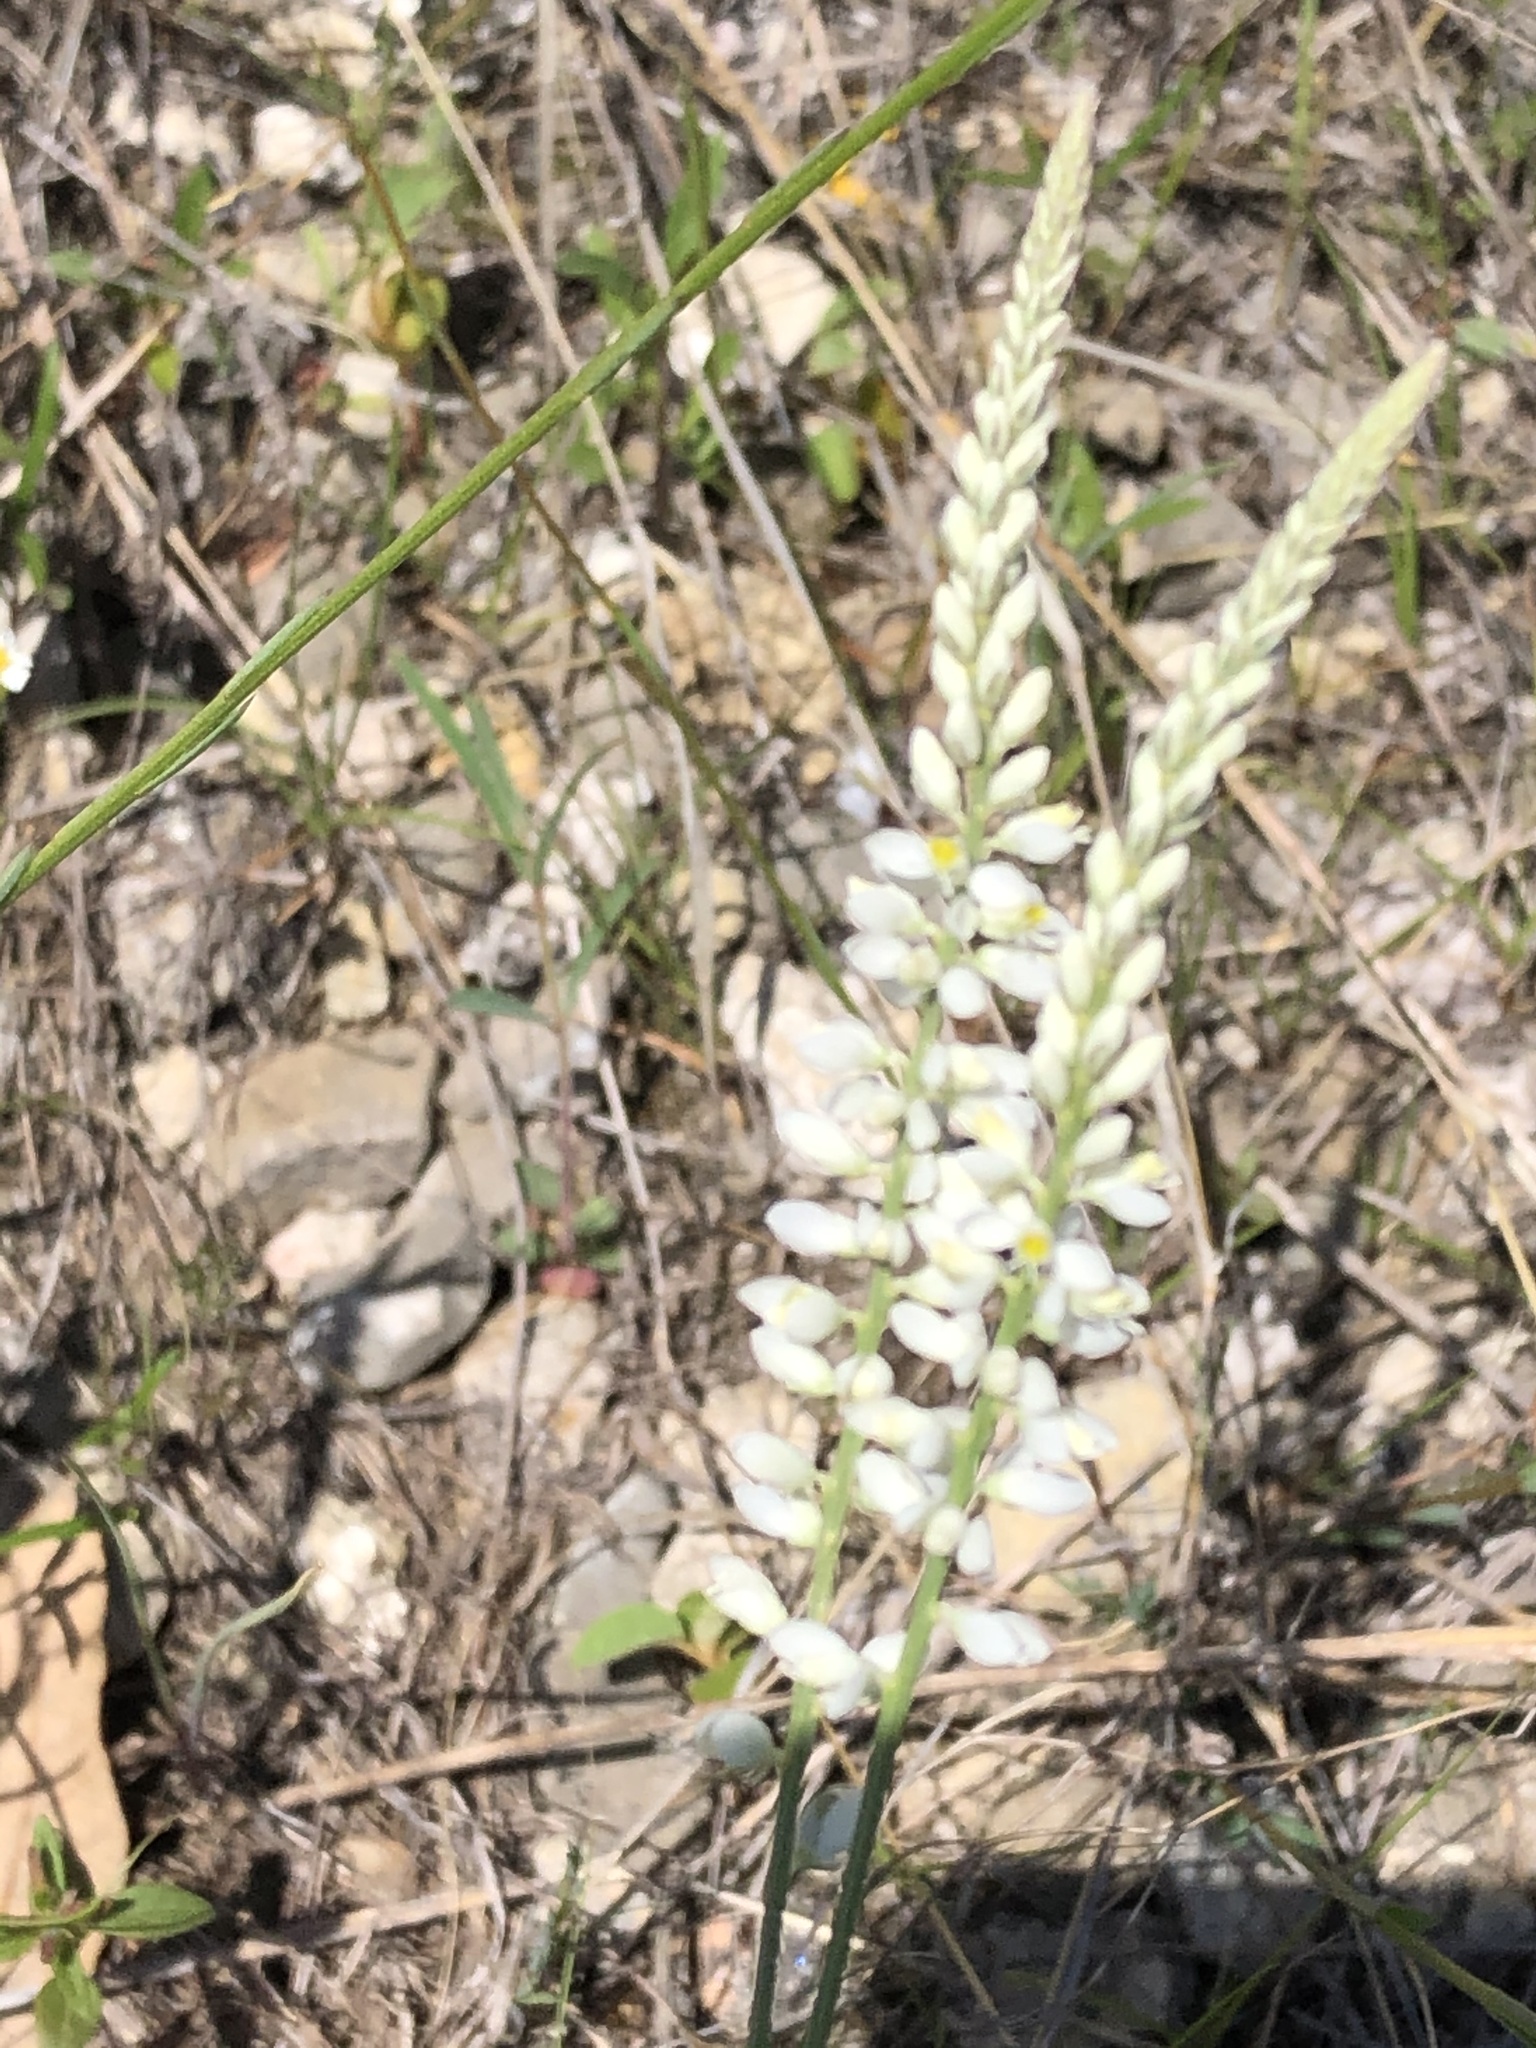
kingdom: Plantae
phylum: Tracheophyta
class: Magnoliopsida
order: Fabales
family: Polygalaceae
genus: Polygala
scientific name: Polygala alba
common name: White milkwort
